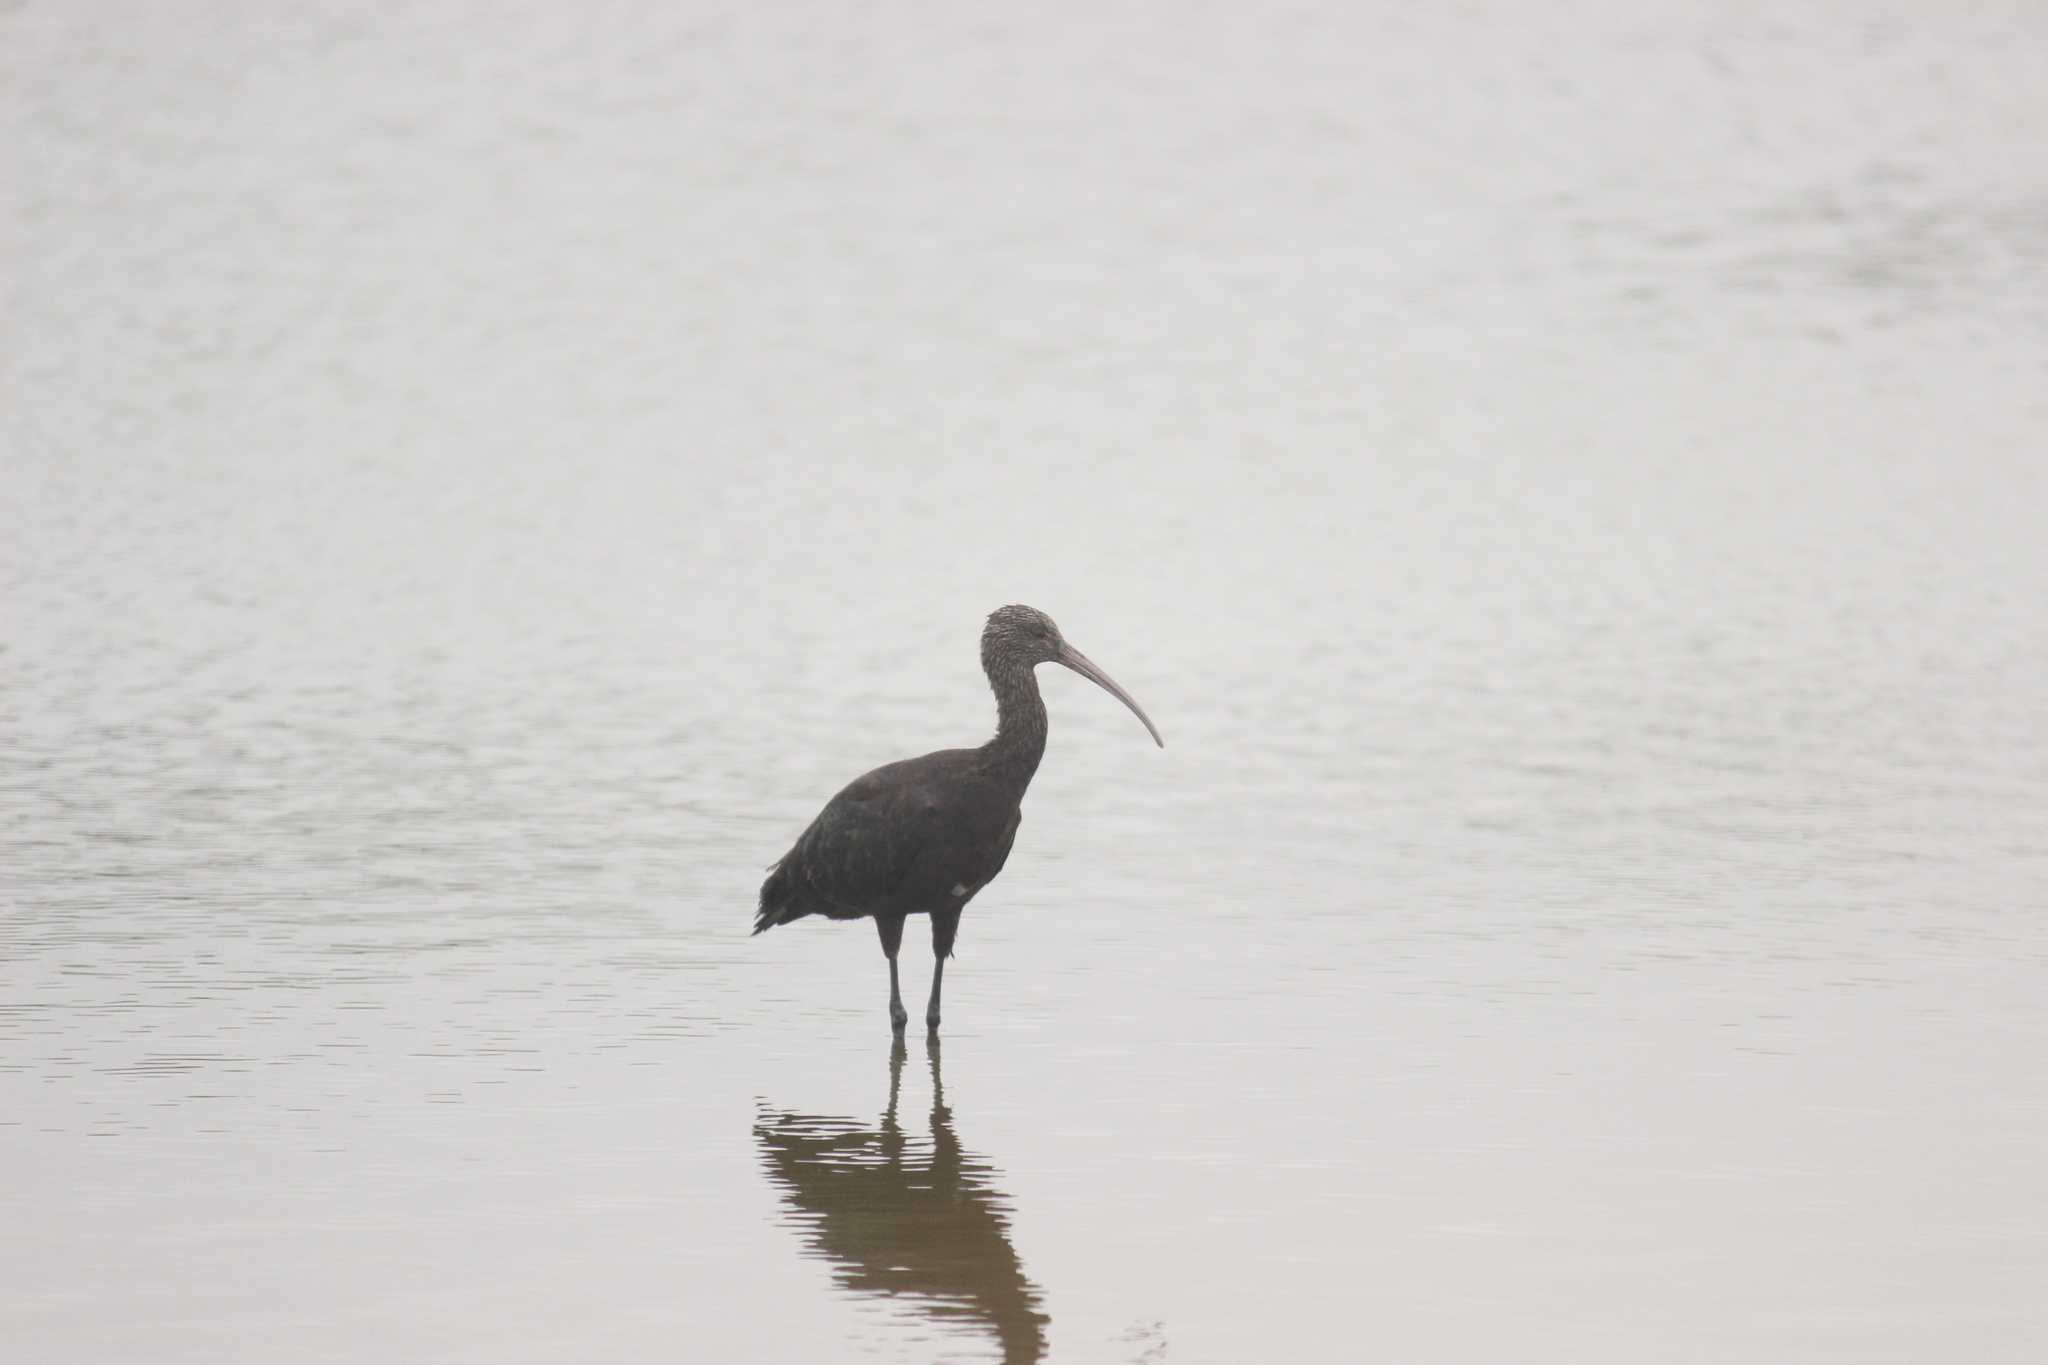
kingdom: Animalia
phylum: Chordata
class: Aves
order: Pelecaniformes
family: Threskiornithidae
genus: Plegadis
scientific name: Plegadis ridgwayi
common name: Puna ibis
